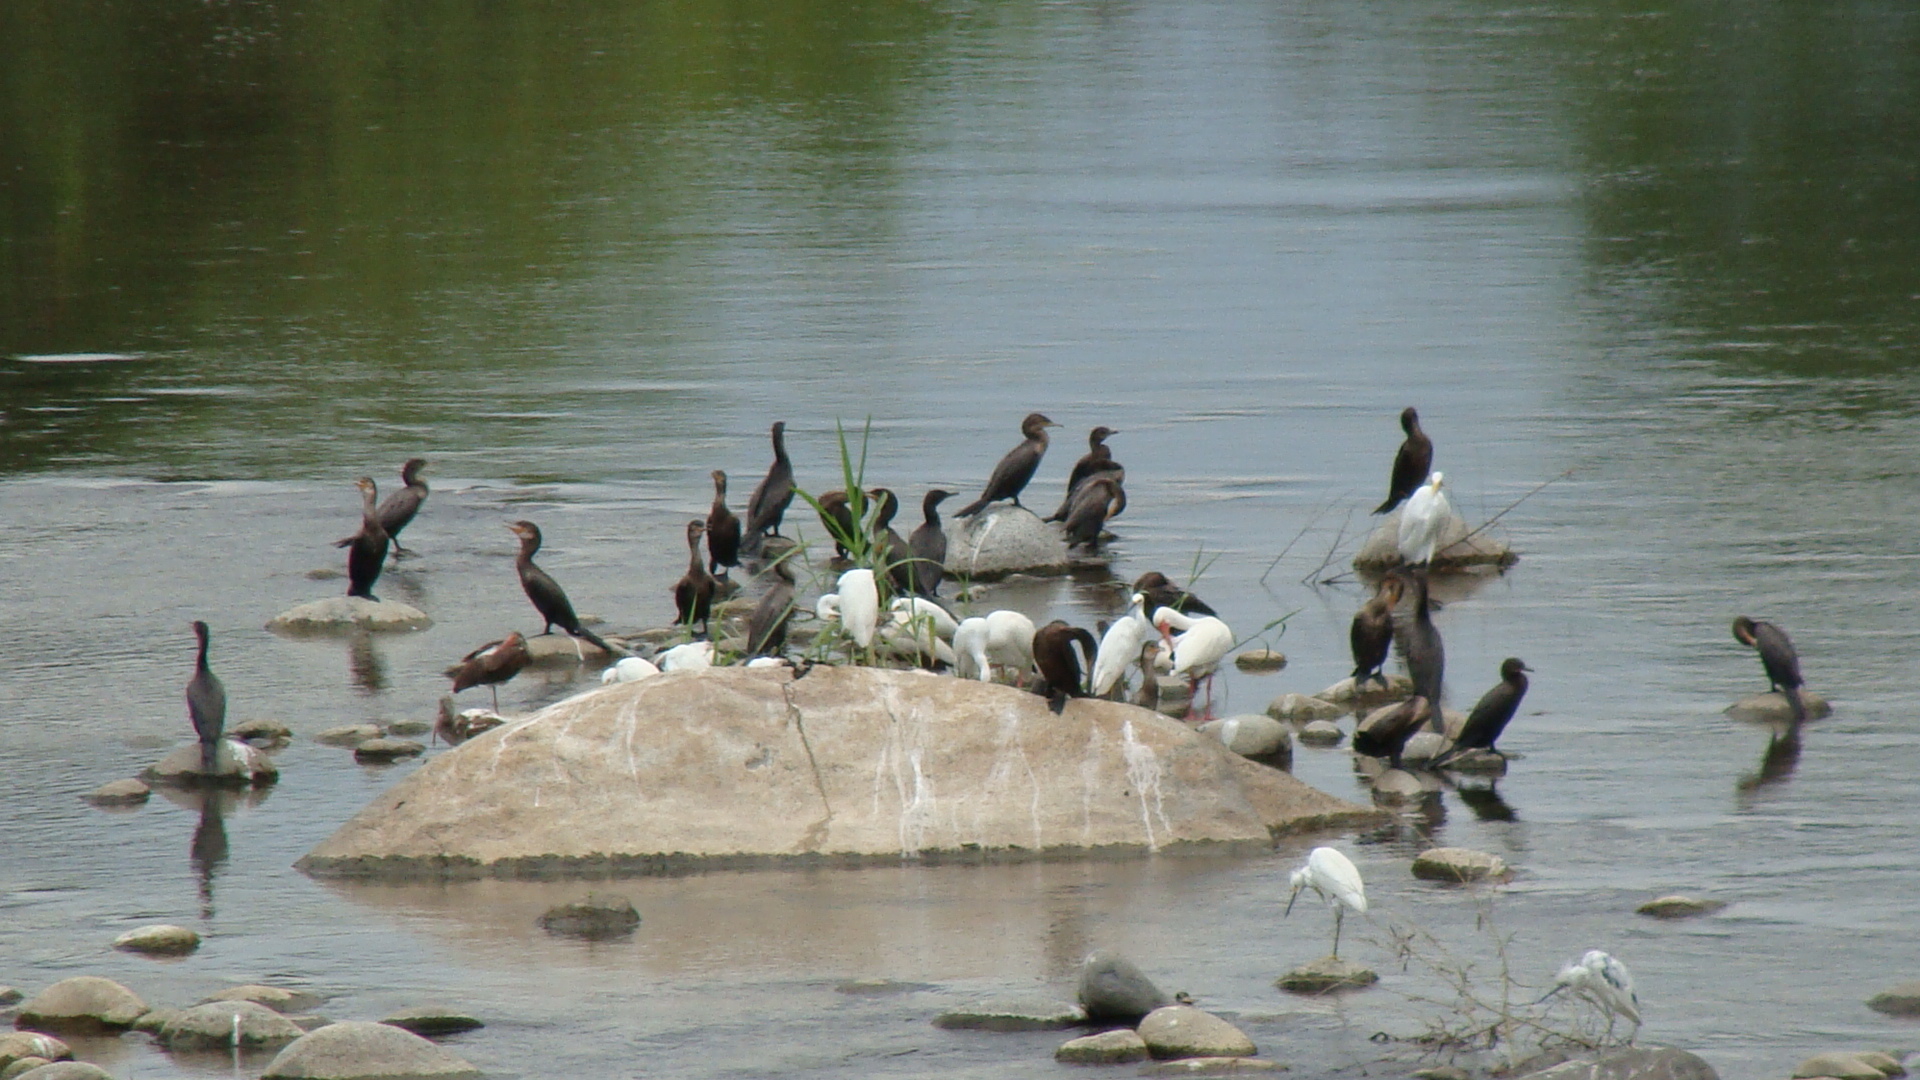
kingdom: Animalia
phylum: Chordata
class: Aves
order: Pelecaniformes
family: Ardeidae
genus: Egretta
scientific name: Egretta thula
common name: Snowy egret
